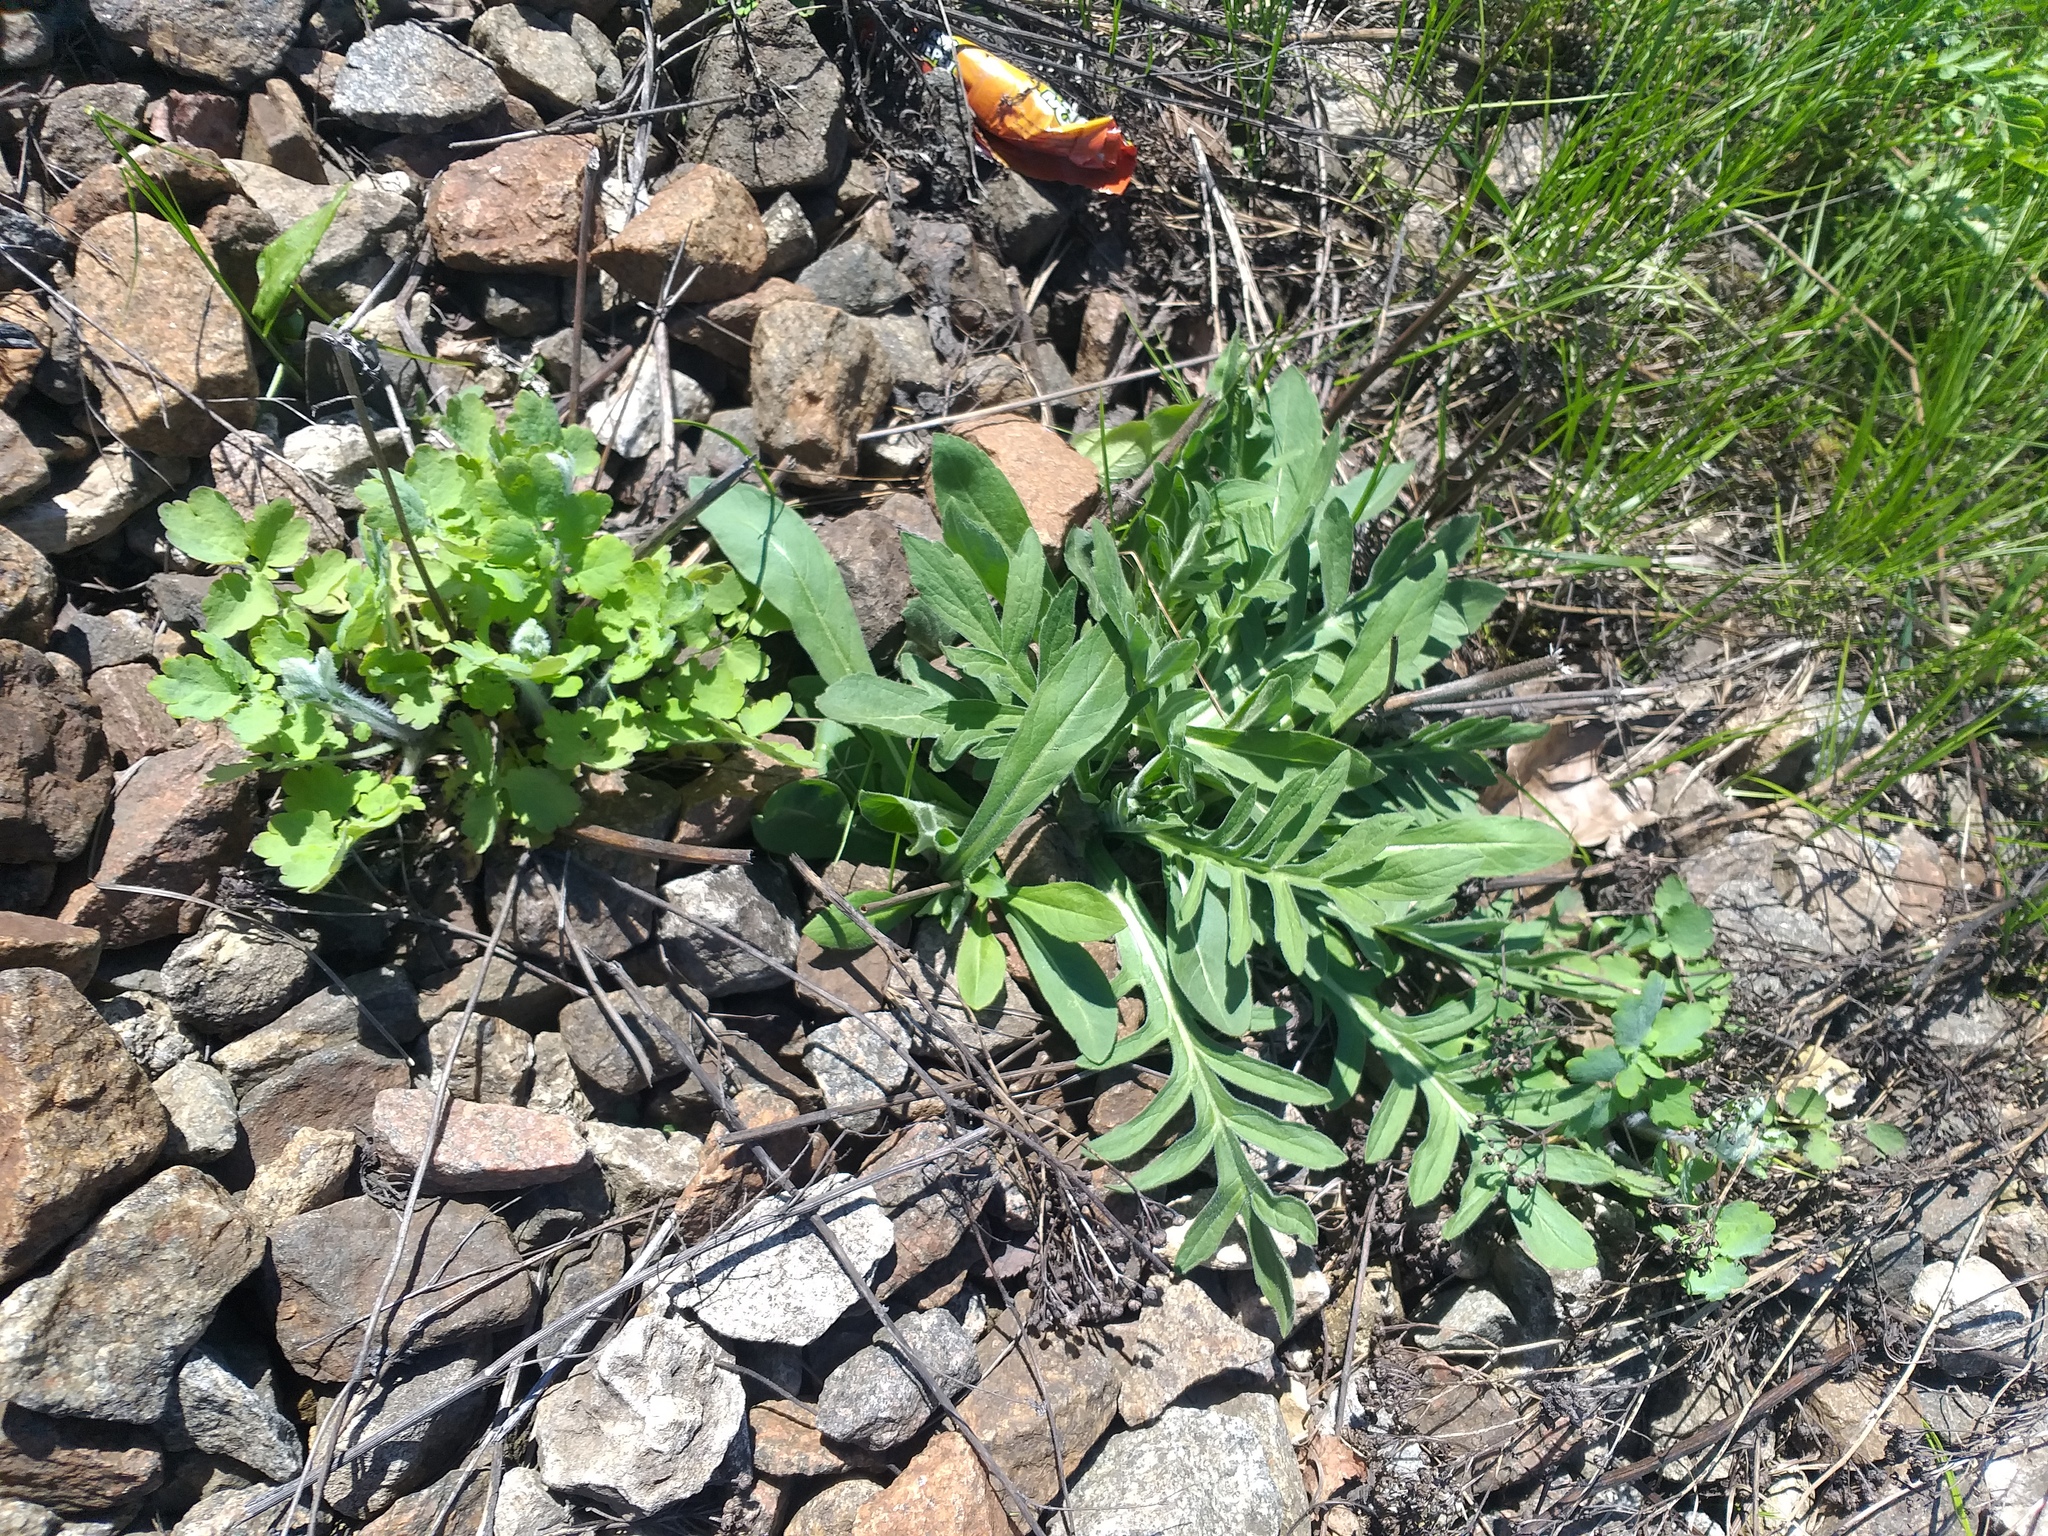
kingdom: Plantae
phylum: Tracheophyta
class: Magnoliopsida
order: Dipsacales
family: Caprifoliaceae
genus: Knautia
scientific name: Knautia arvensis
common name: Field scabiosa
